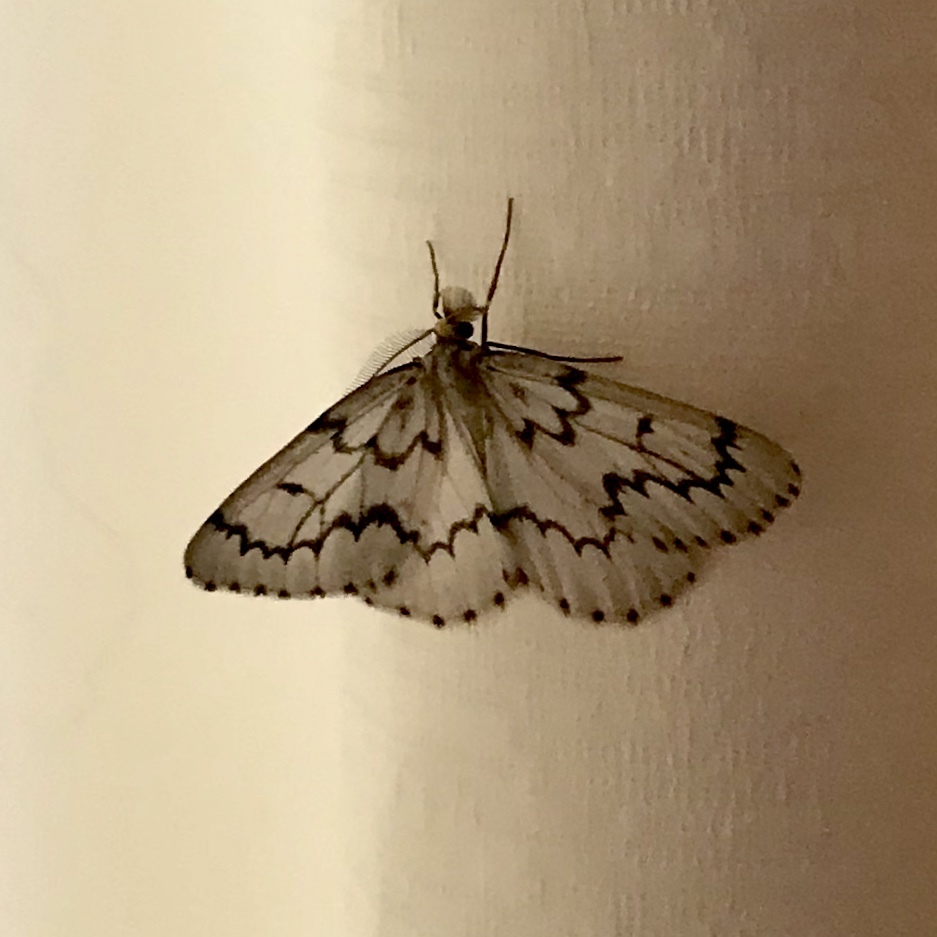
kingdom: Animalia
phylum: Arthropoda
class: Insecta
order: Lepidoptera
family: Geometridae
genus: Nepytia
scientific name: Nepytia phantasmaria
